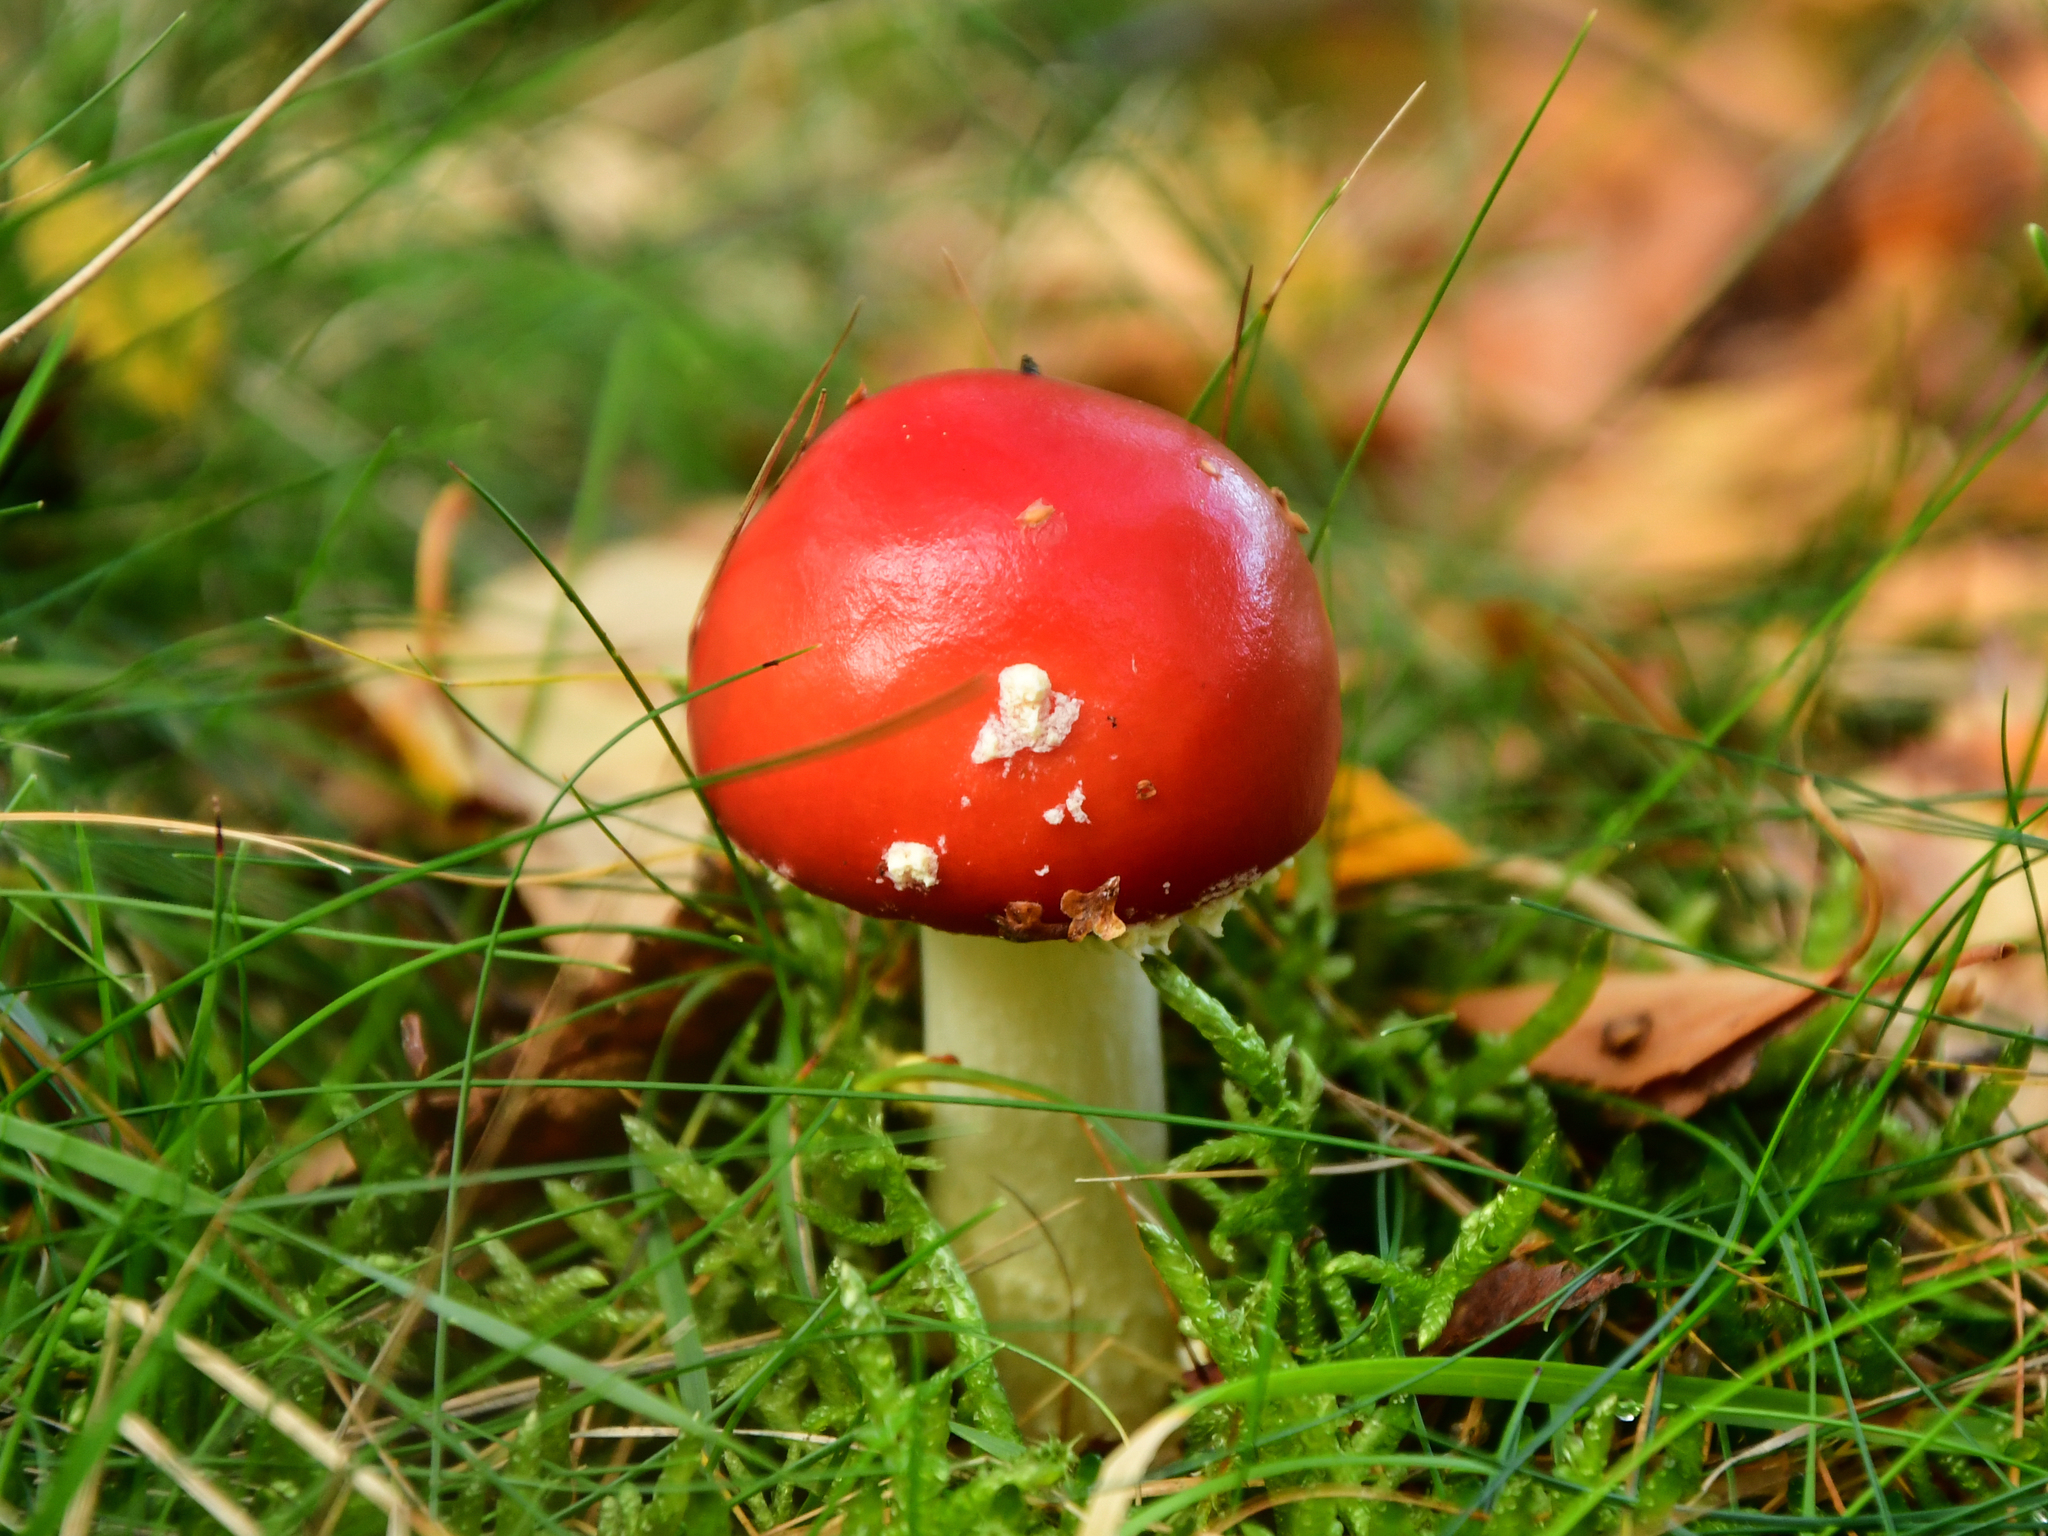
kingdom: Fungi
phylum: Basidiomycota
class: Agaricomycetes
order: Agaricales
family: Amanitaceae
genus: Amanita
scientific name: Amanita muscaria
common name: Fly agaric
